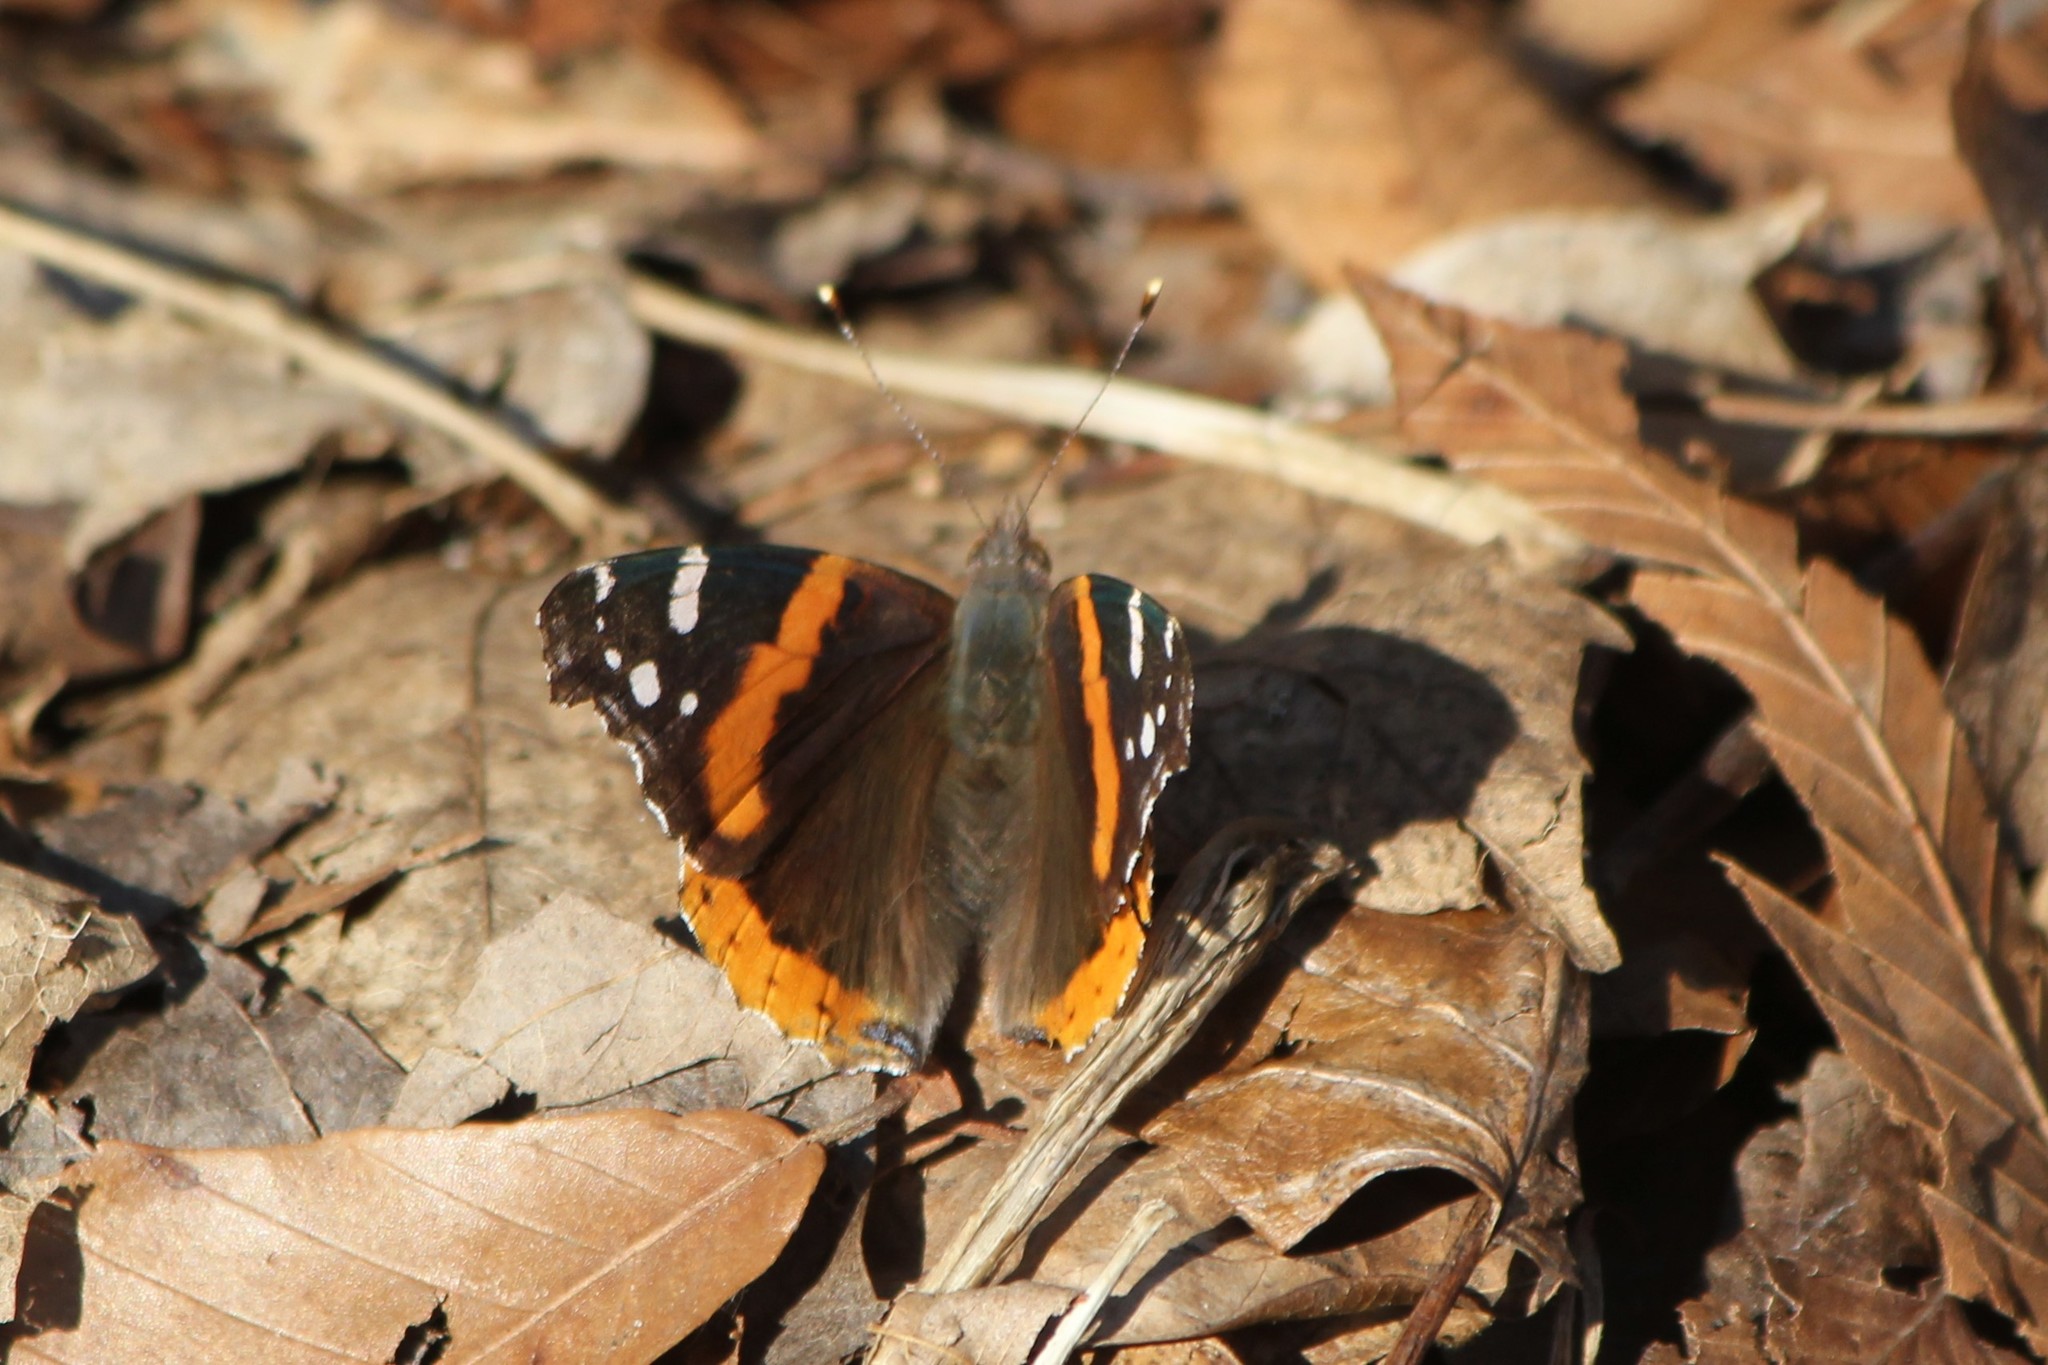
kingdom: Animalia
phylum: Arthropoda
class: Insecta
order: Lepidoptera
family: Nymphalidae
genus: Vanessa
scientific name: Vanessa atalanta
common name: Red admiral
